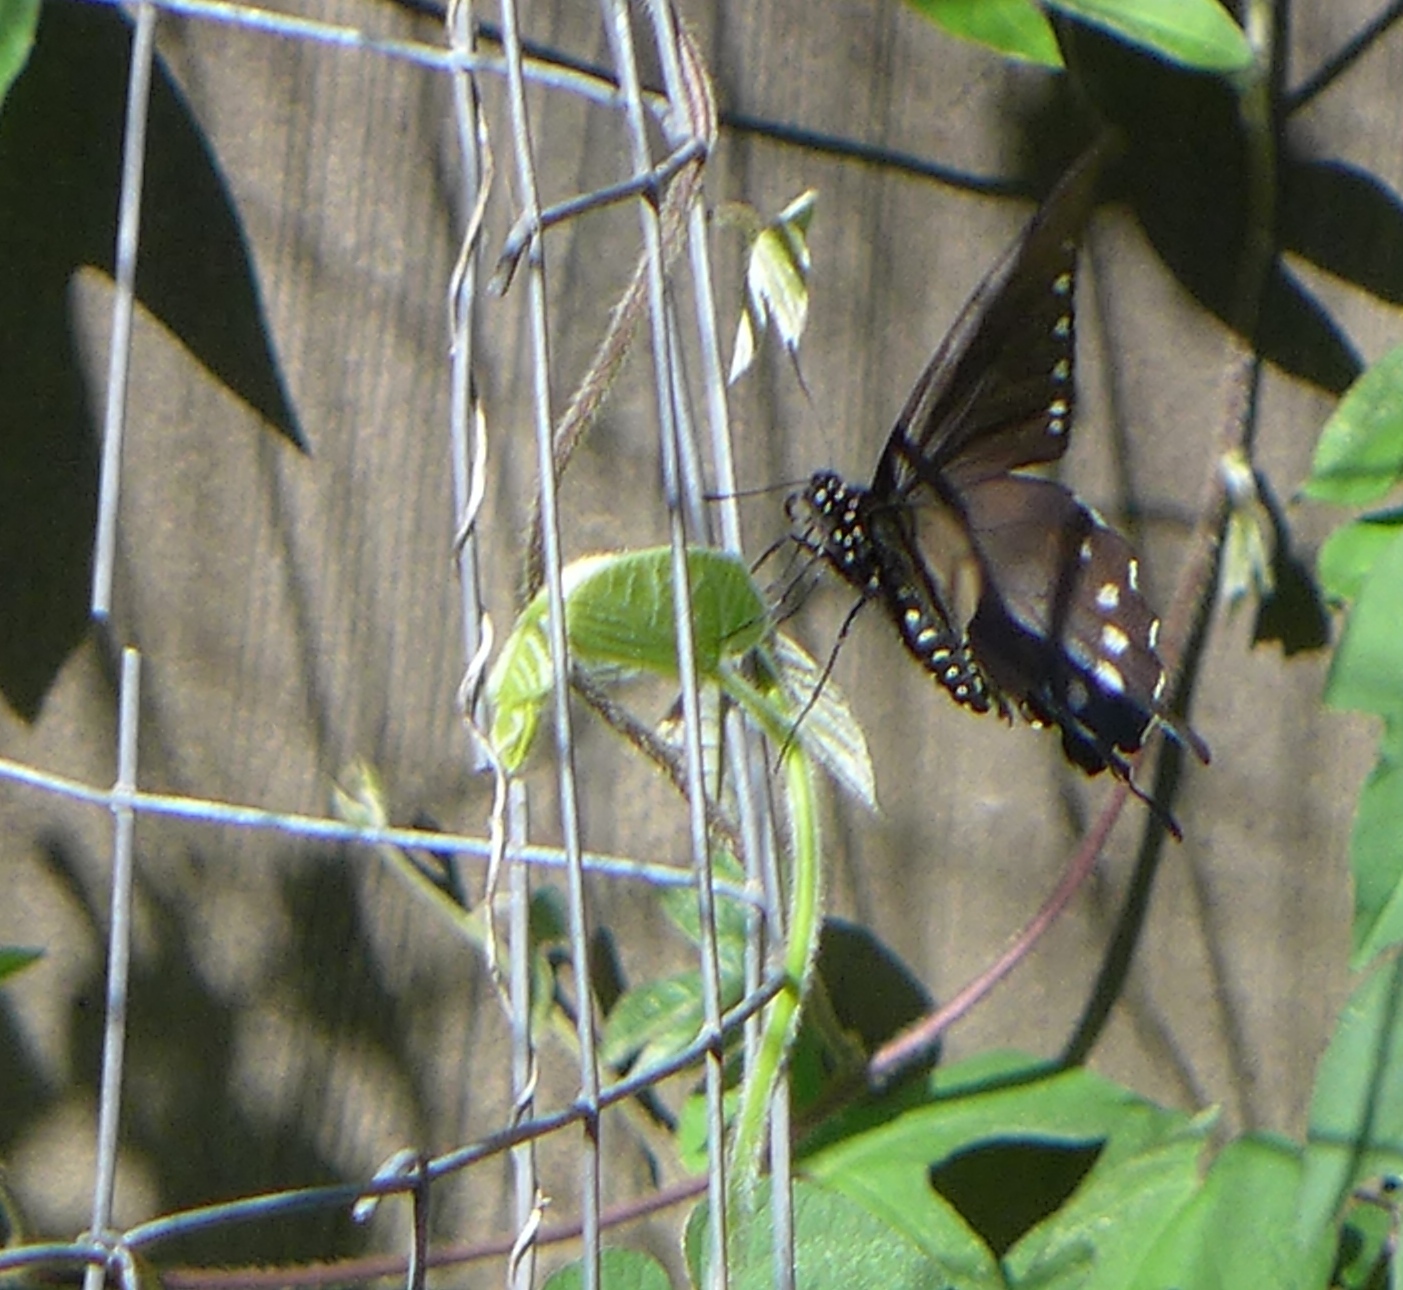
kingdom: Animalia
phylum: Arthropoda
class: Insecta
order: Lepidoptera
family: Papilionidae
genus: Battus
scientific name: Battus philenor
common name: Pipevine swallowtail
